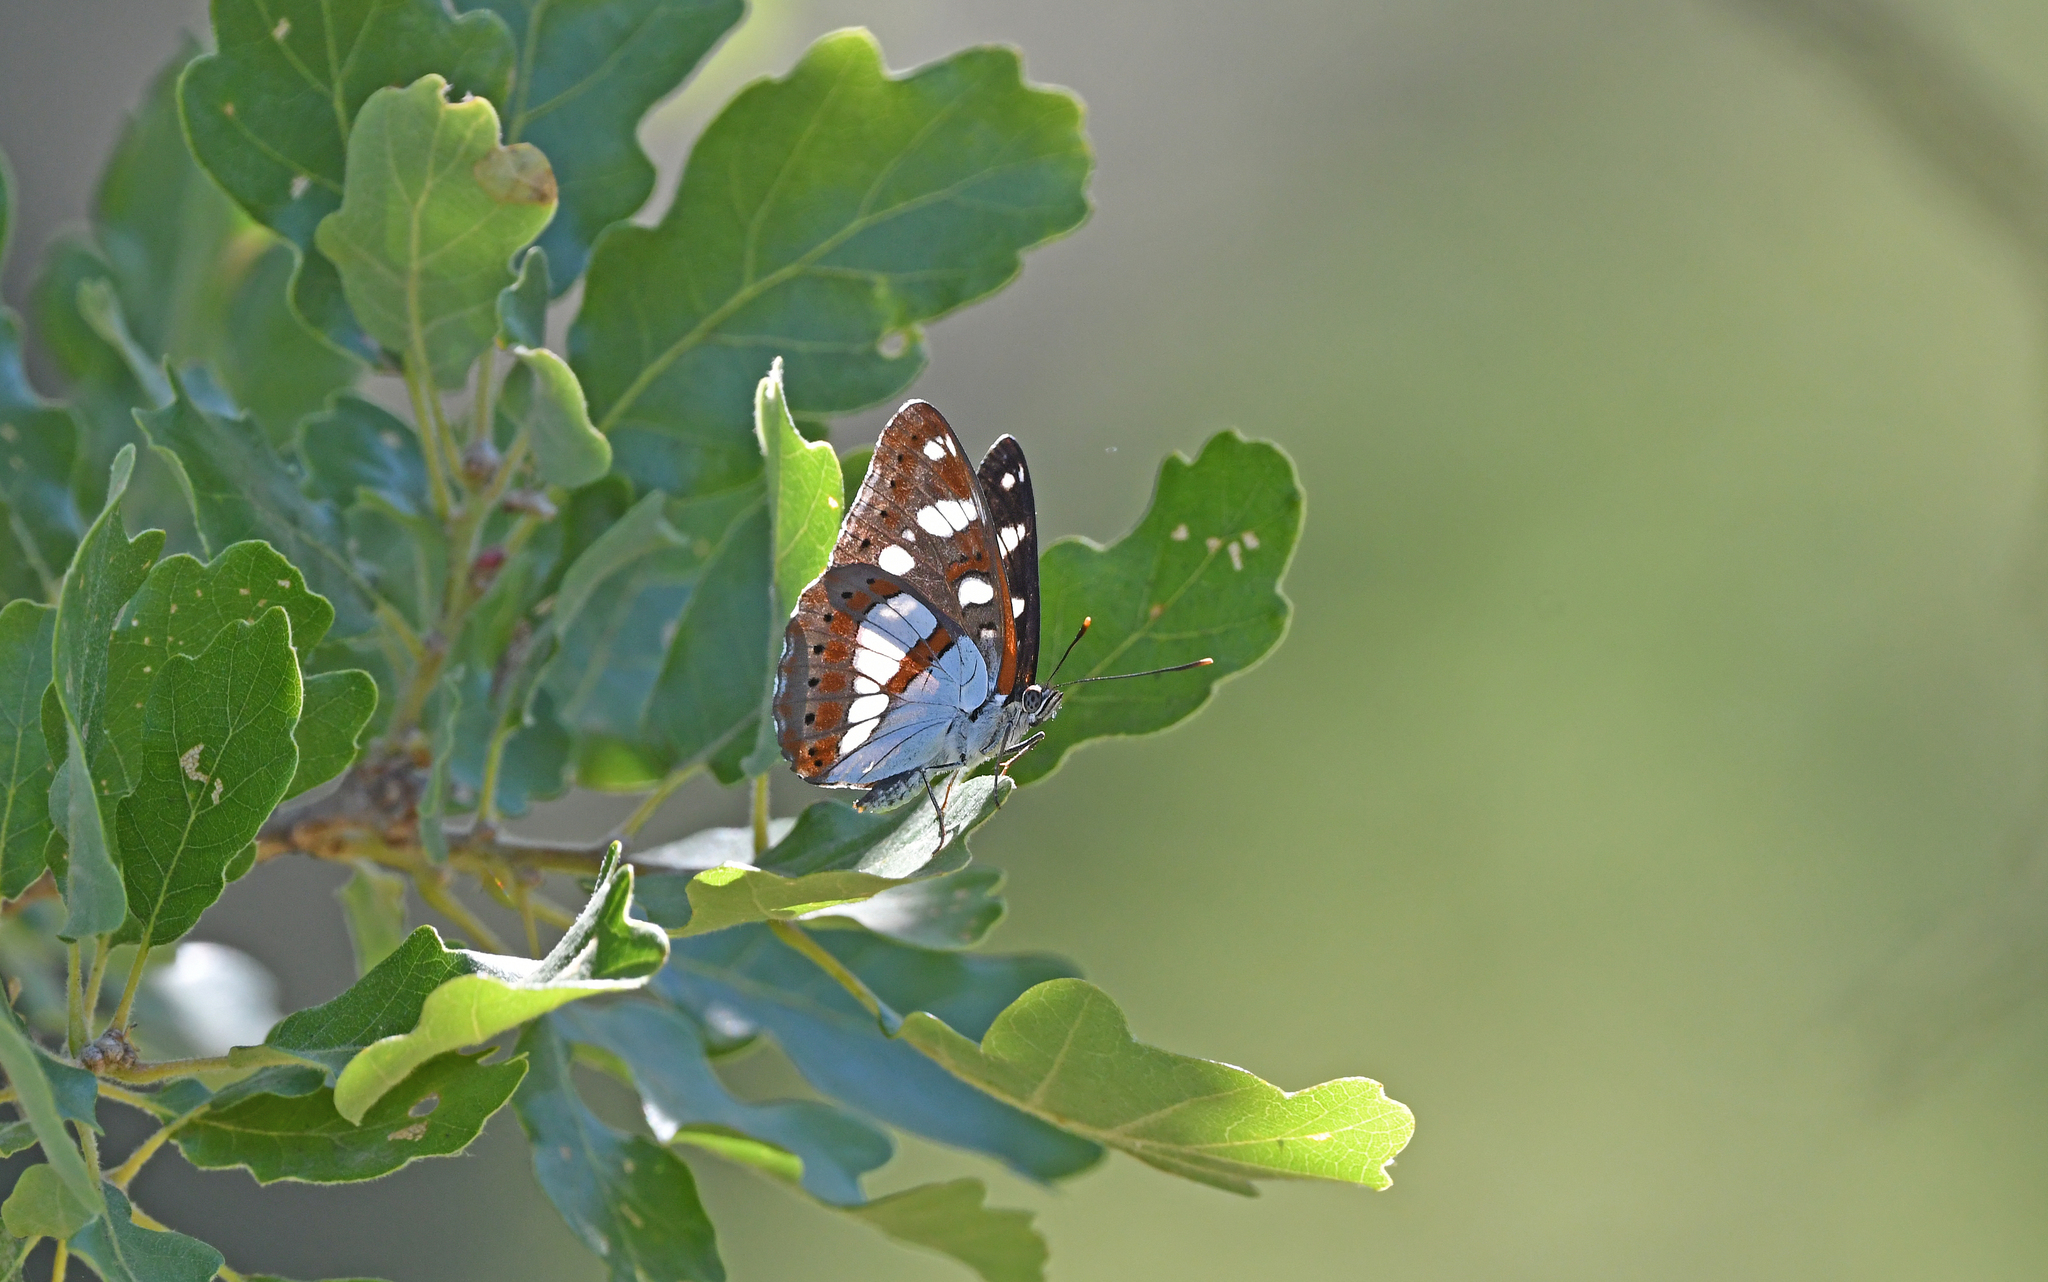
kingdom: Animalia
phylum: Arthropoda
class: Insecta
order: Lepidoptera
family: Nymphalidae
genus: Limenitis
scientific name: Limenitis reducta
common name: Southern white admiral
